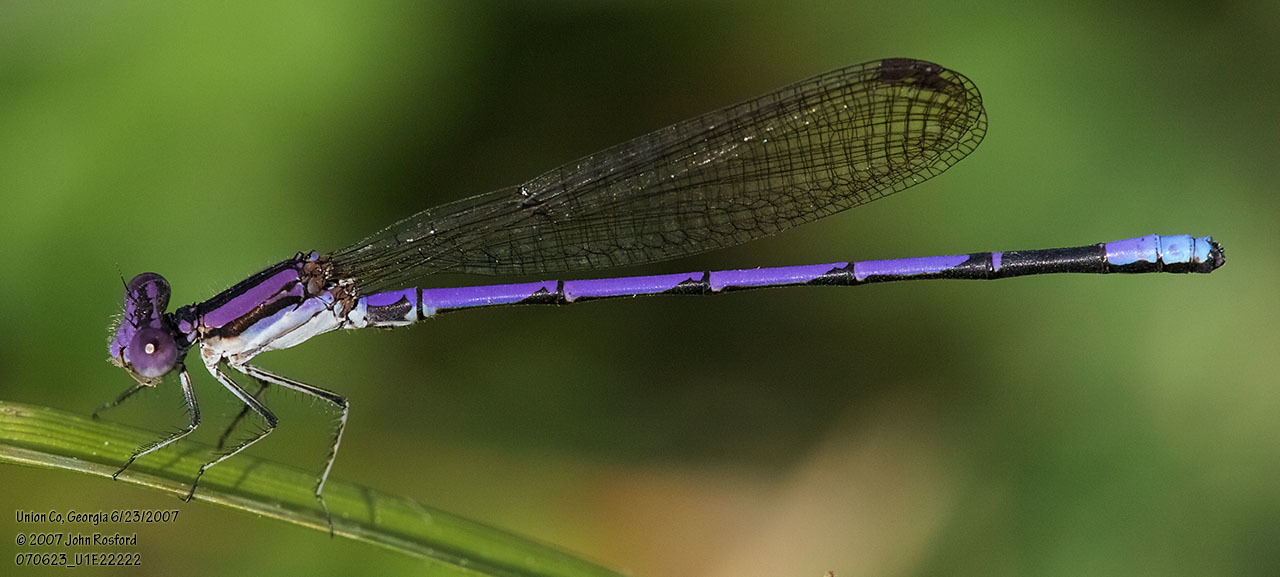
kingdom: Animalia
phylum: Arthropoda
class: Insecta
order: Odonata
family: Coenagrionidae
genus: Argia
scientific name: Argia fumipennis
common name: Variable dancer
